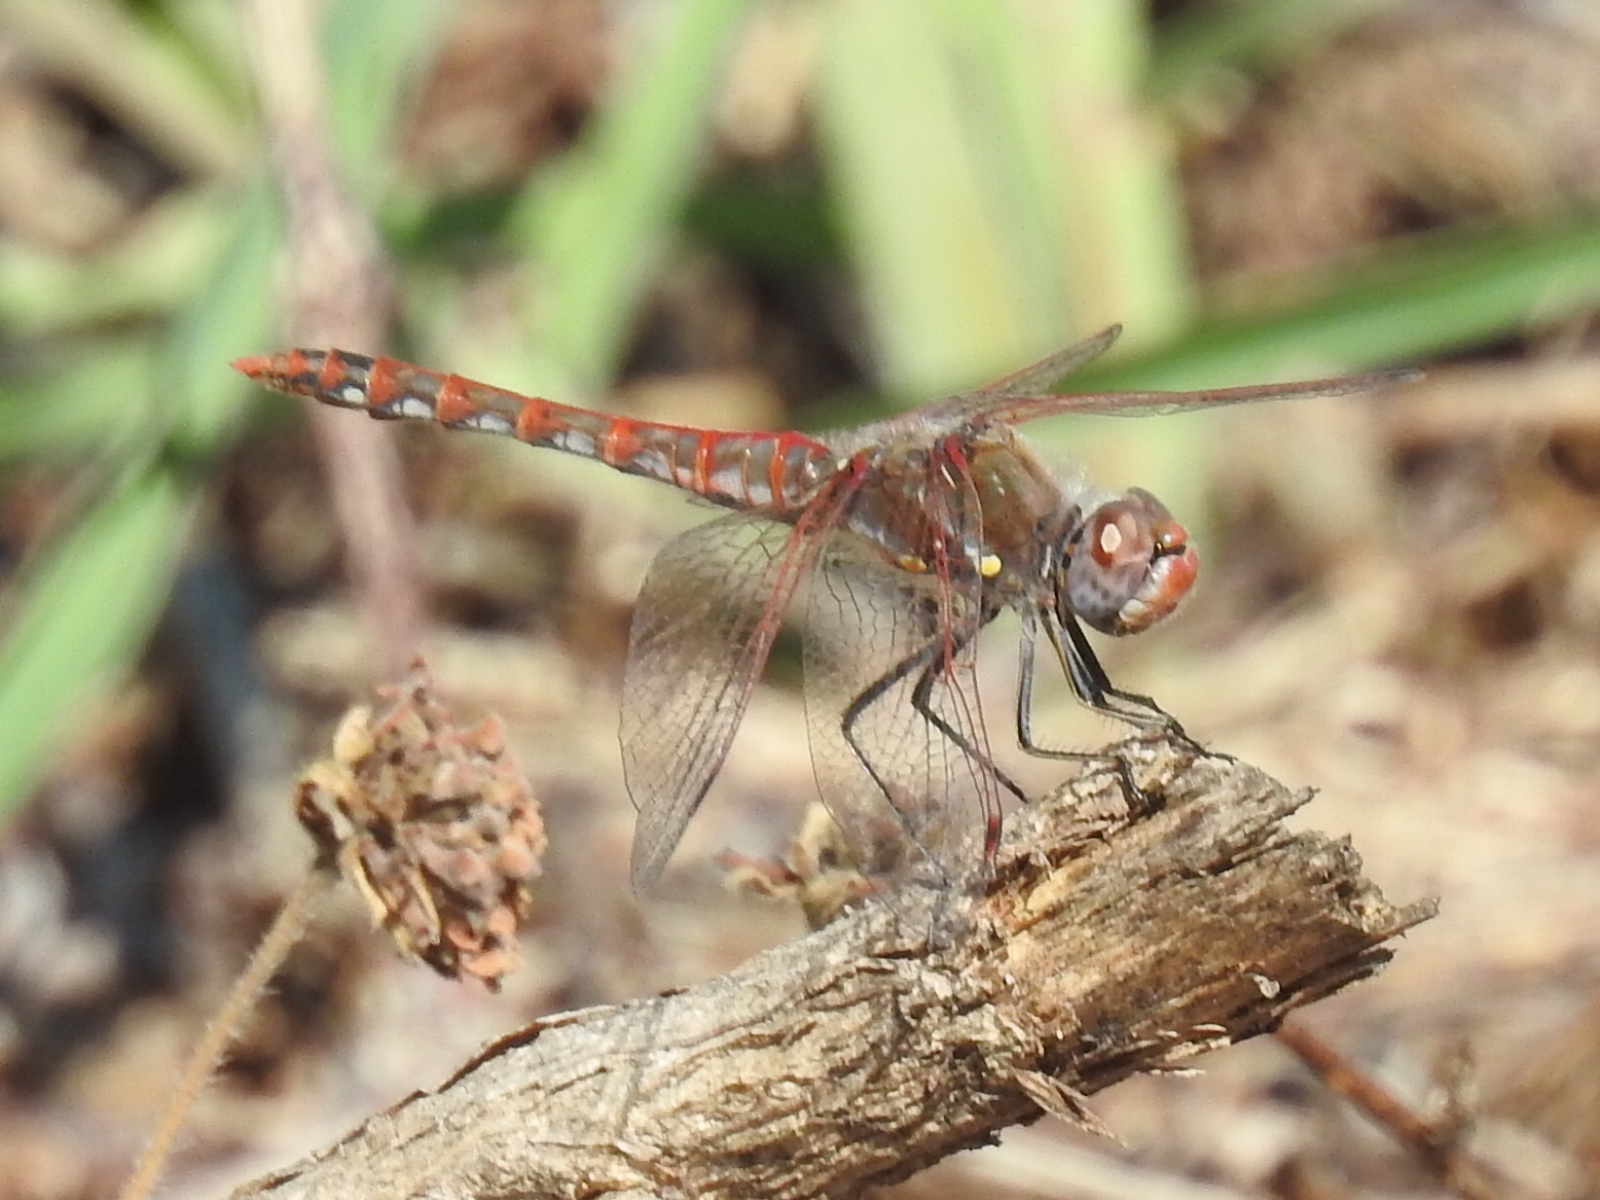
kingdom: Animalia
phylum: Arthropoda
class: Insecta
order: Odonata
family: Libellulidae
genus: Sympetrum
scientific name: Sympetrum corruptum
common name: Variegated meadowhawk
